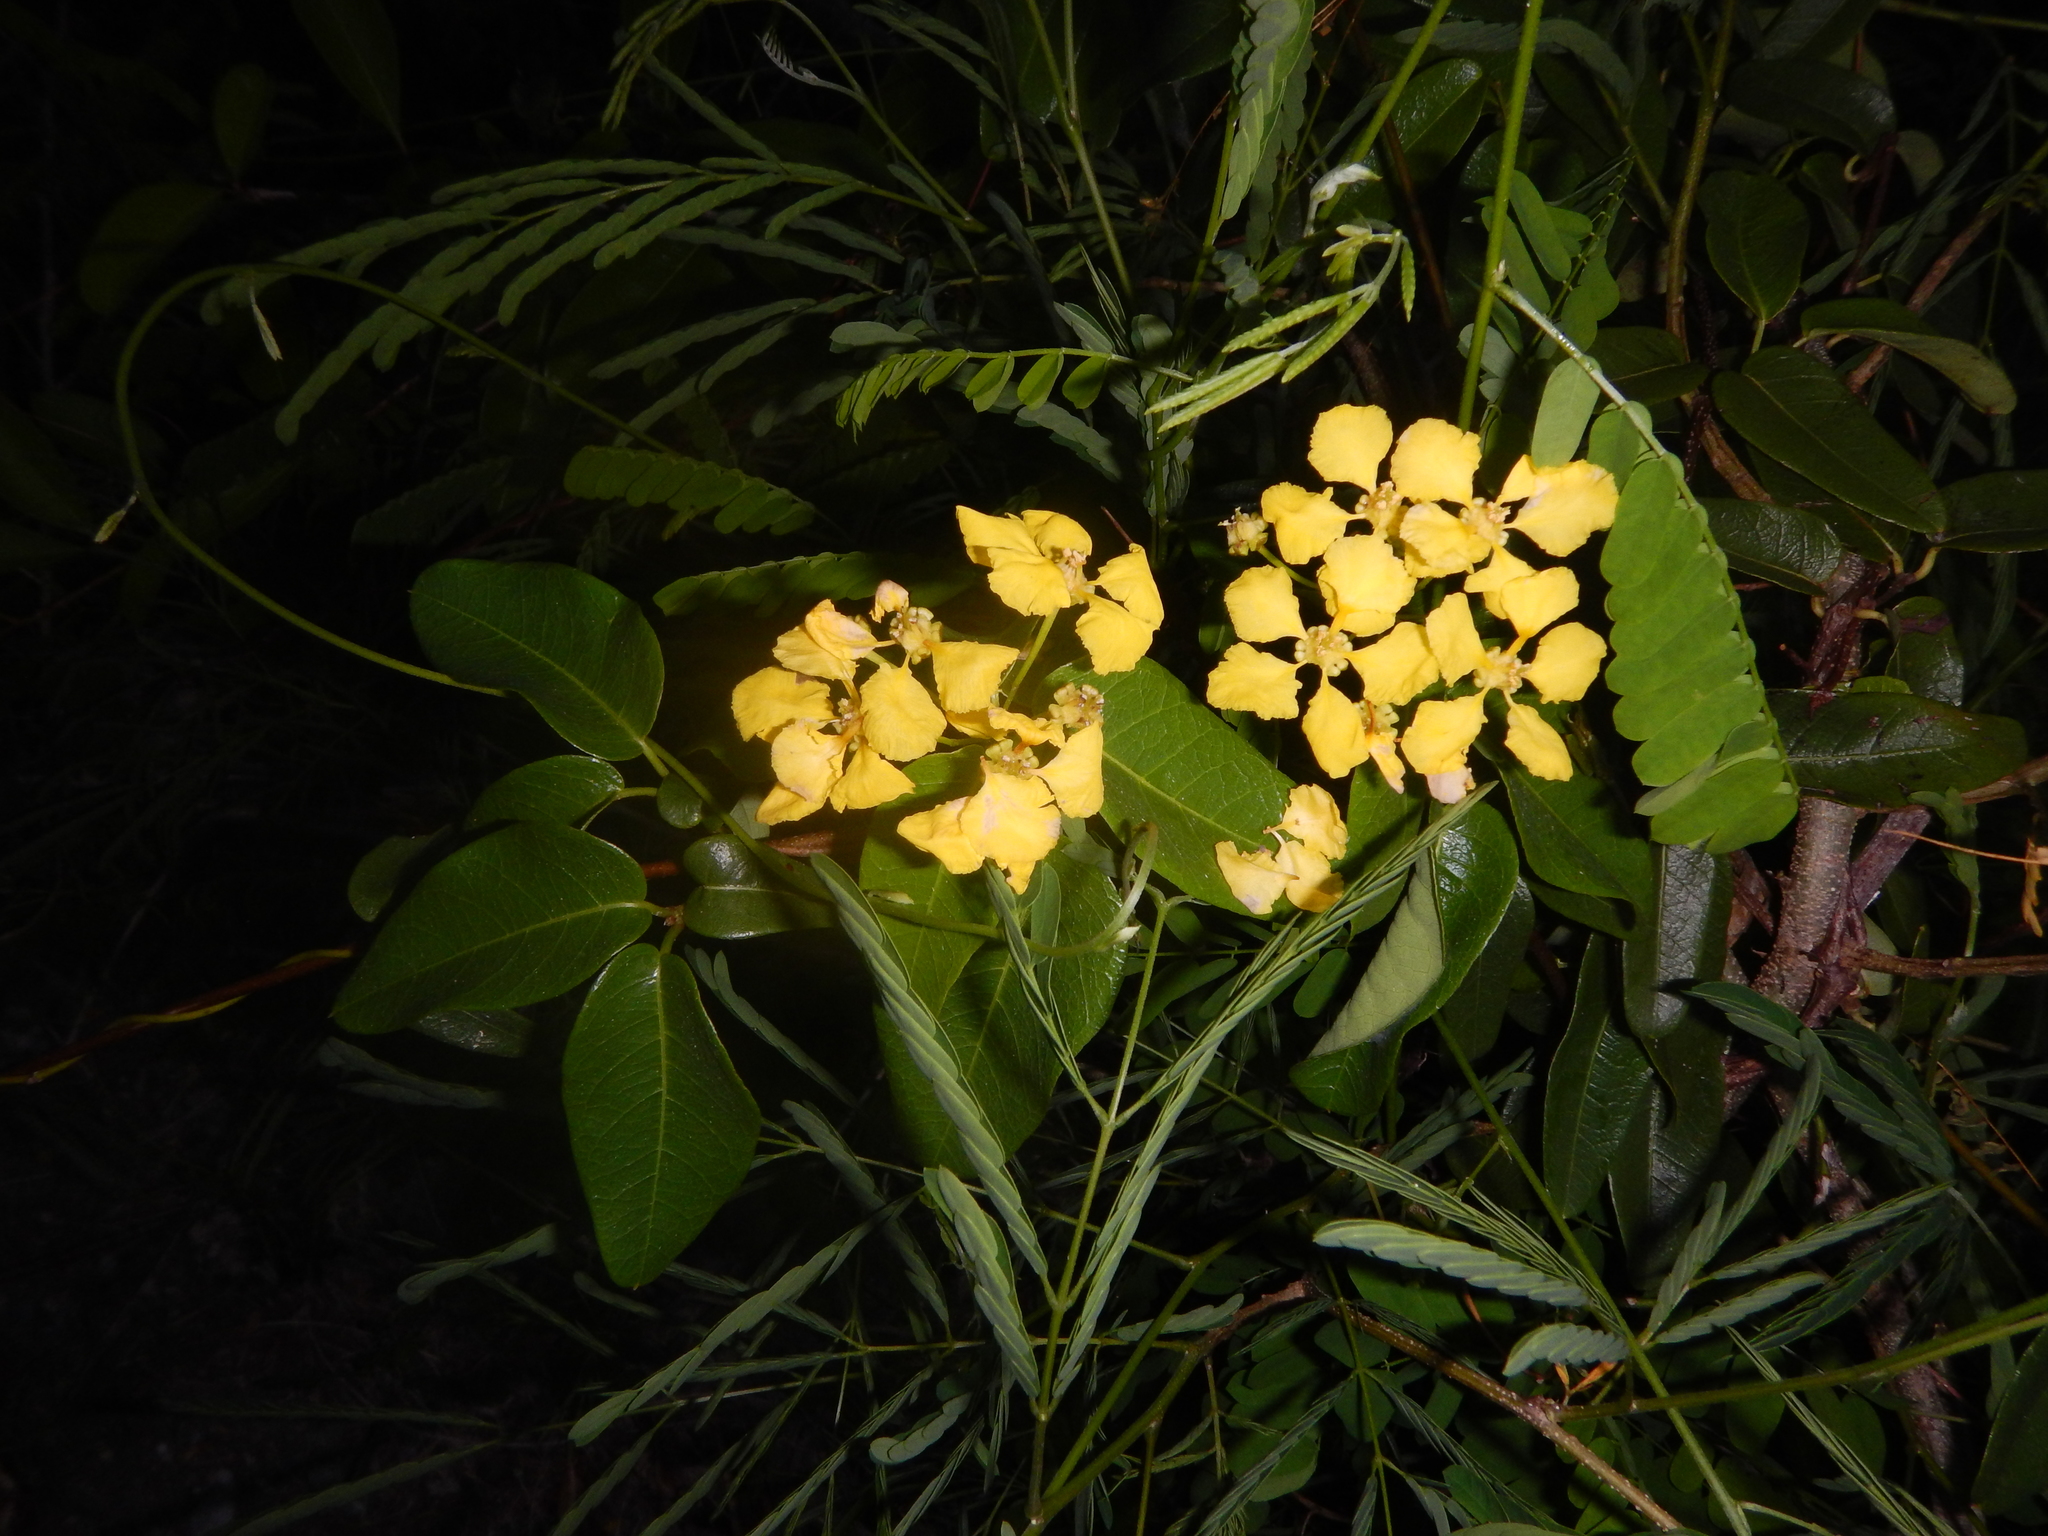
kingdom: Plantae
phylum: Tracheophyta
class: Magnoliopsida
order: Malpighiales
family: Malpighiaceae
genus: Stigmaphyllon
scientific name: Stigmaphyllon emarginatum
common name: Monarch amazonvine
